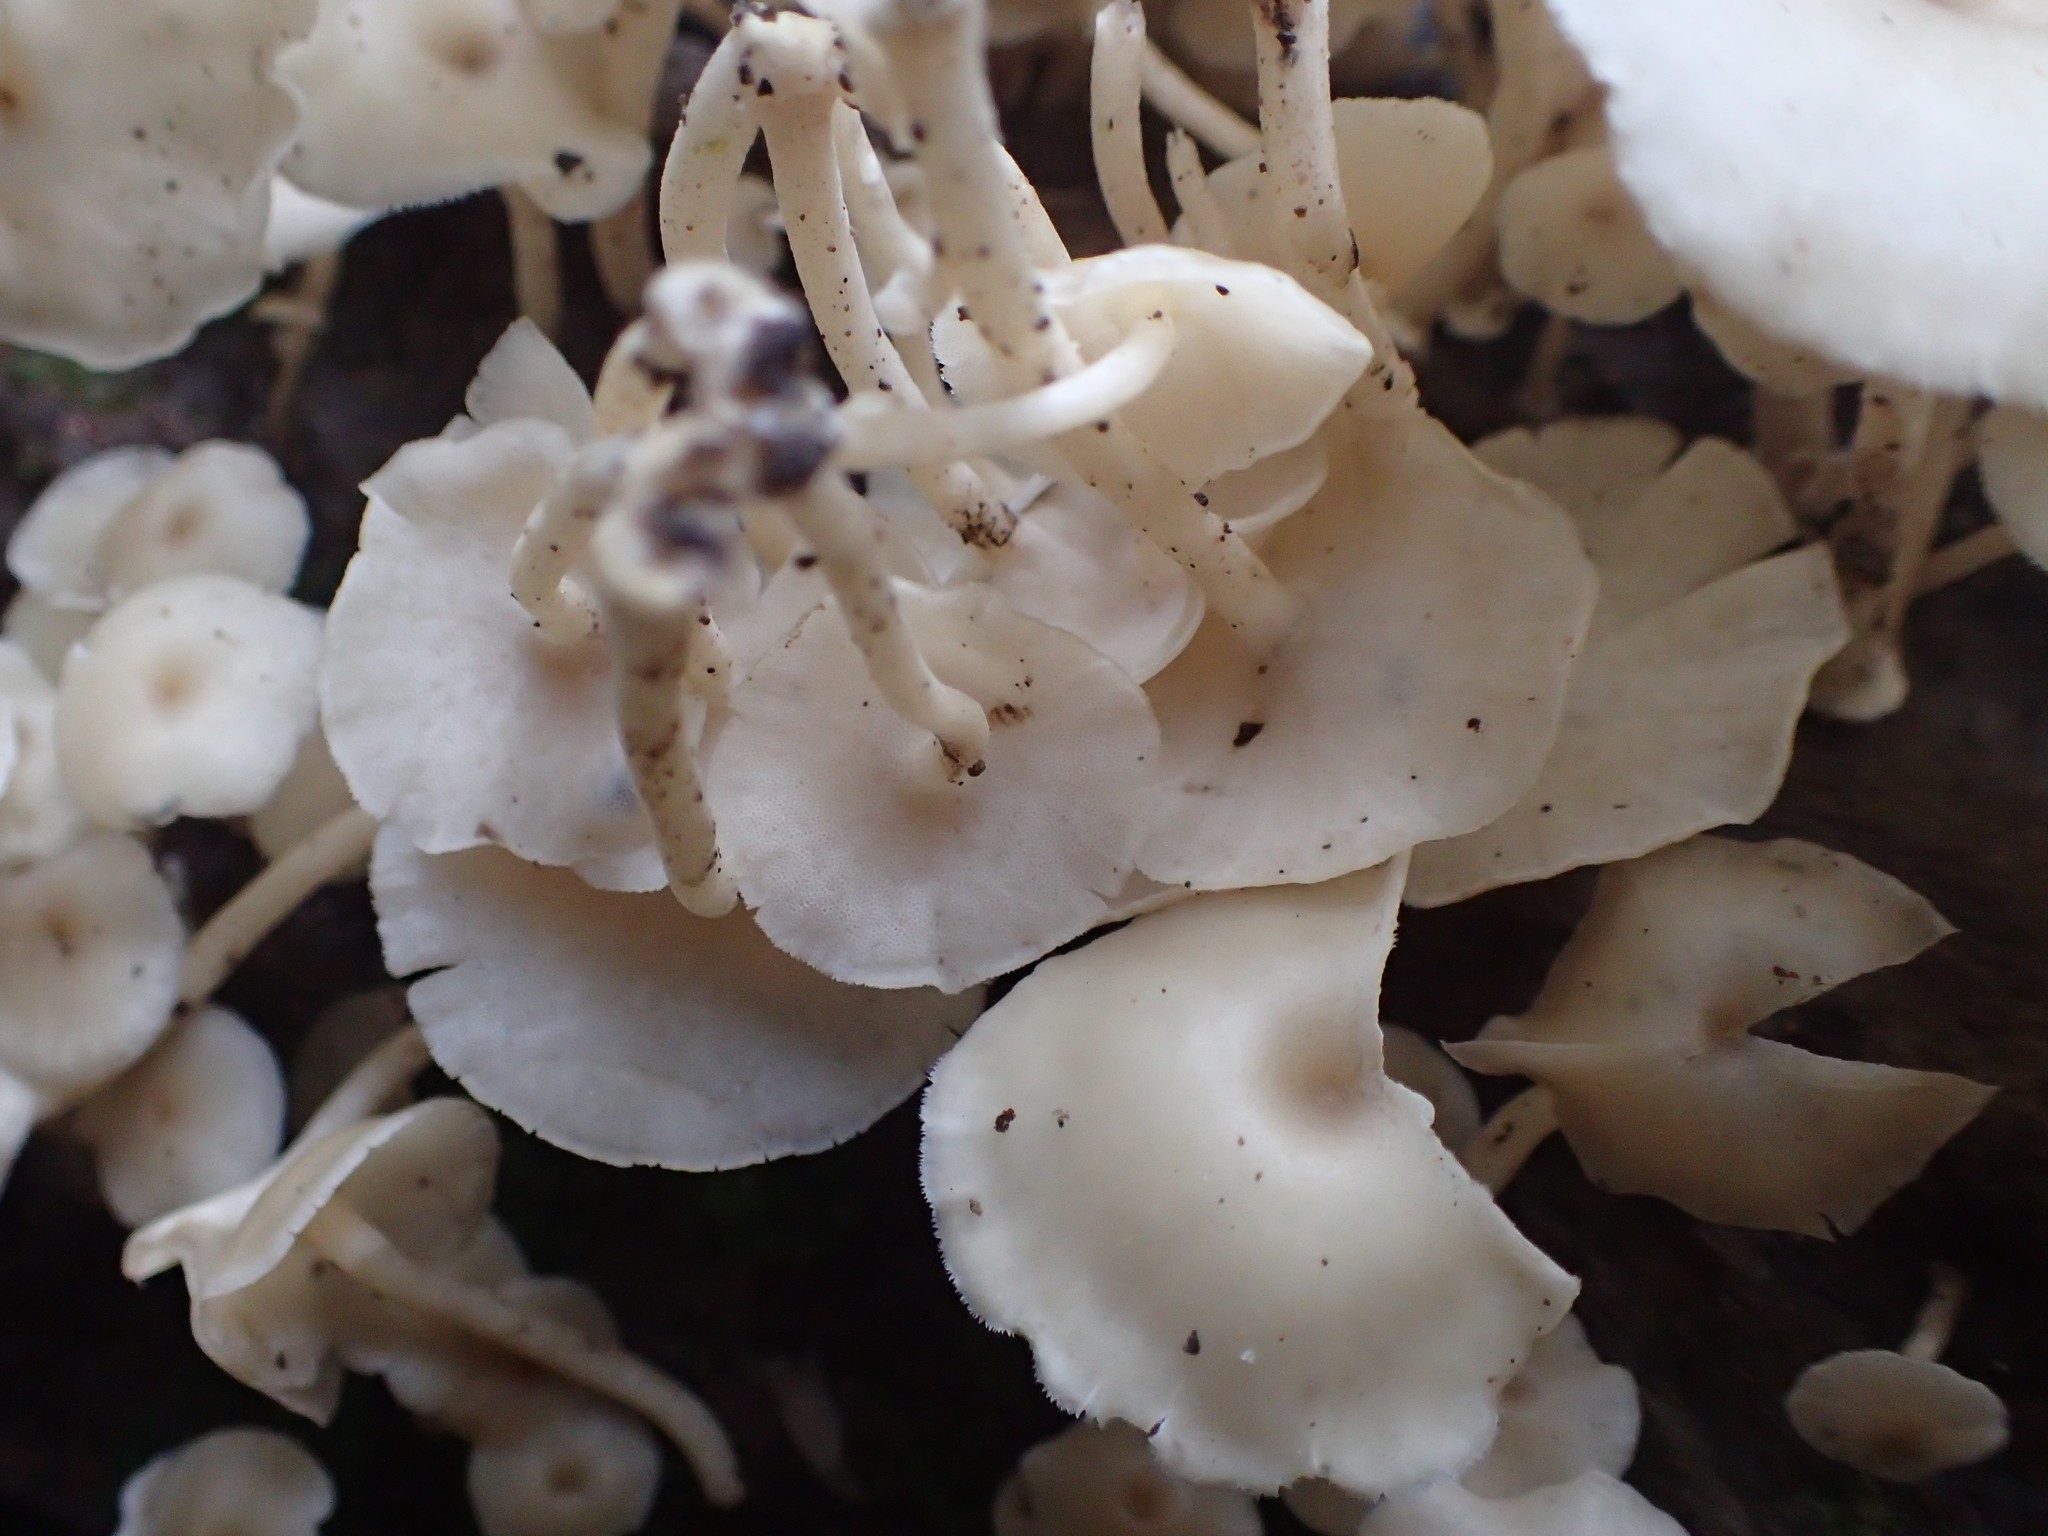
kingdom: Fungi
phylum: Basidiomycota
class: Agaricomycetes
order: Polyporales
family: Polyporaceae
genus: Lentinus
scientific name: Lentinus flexipes
